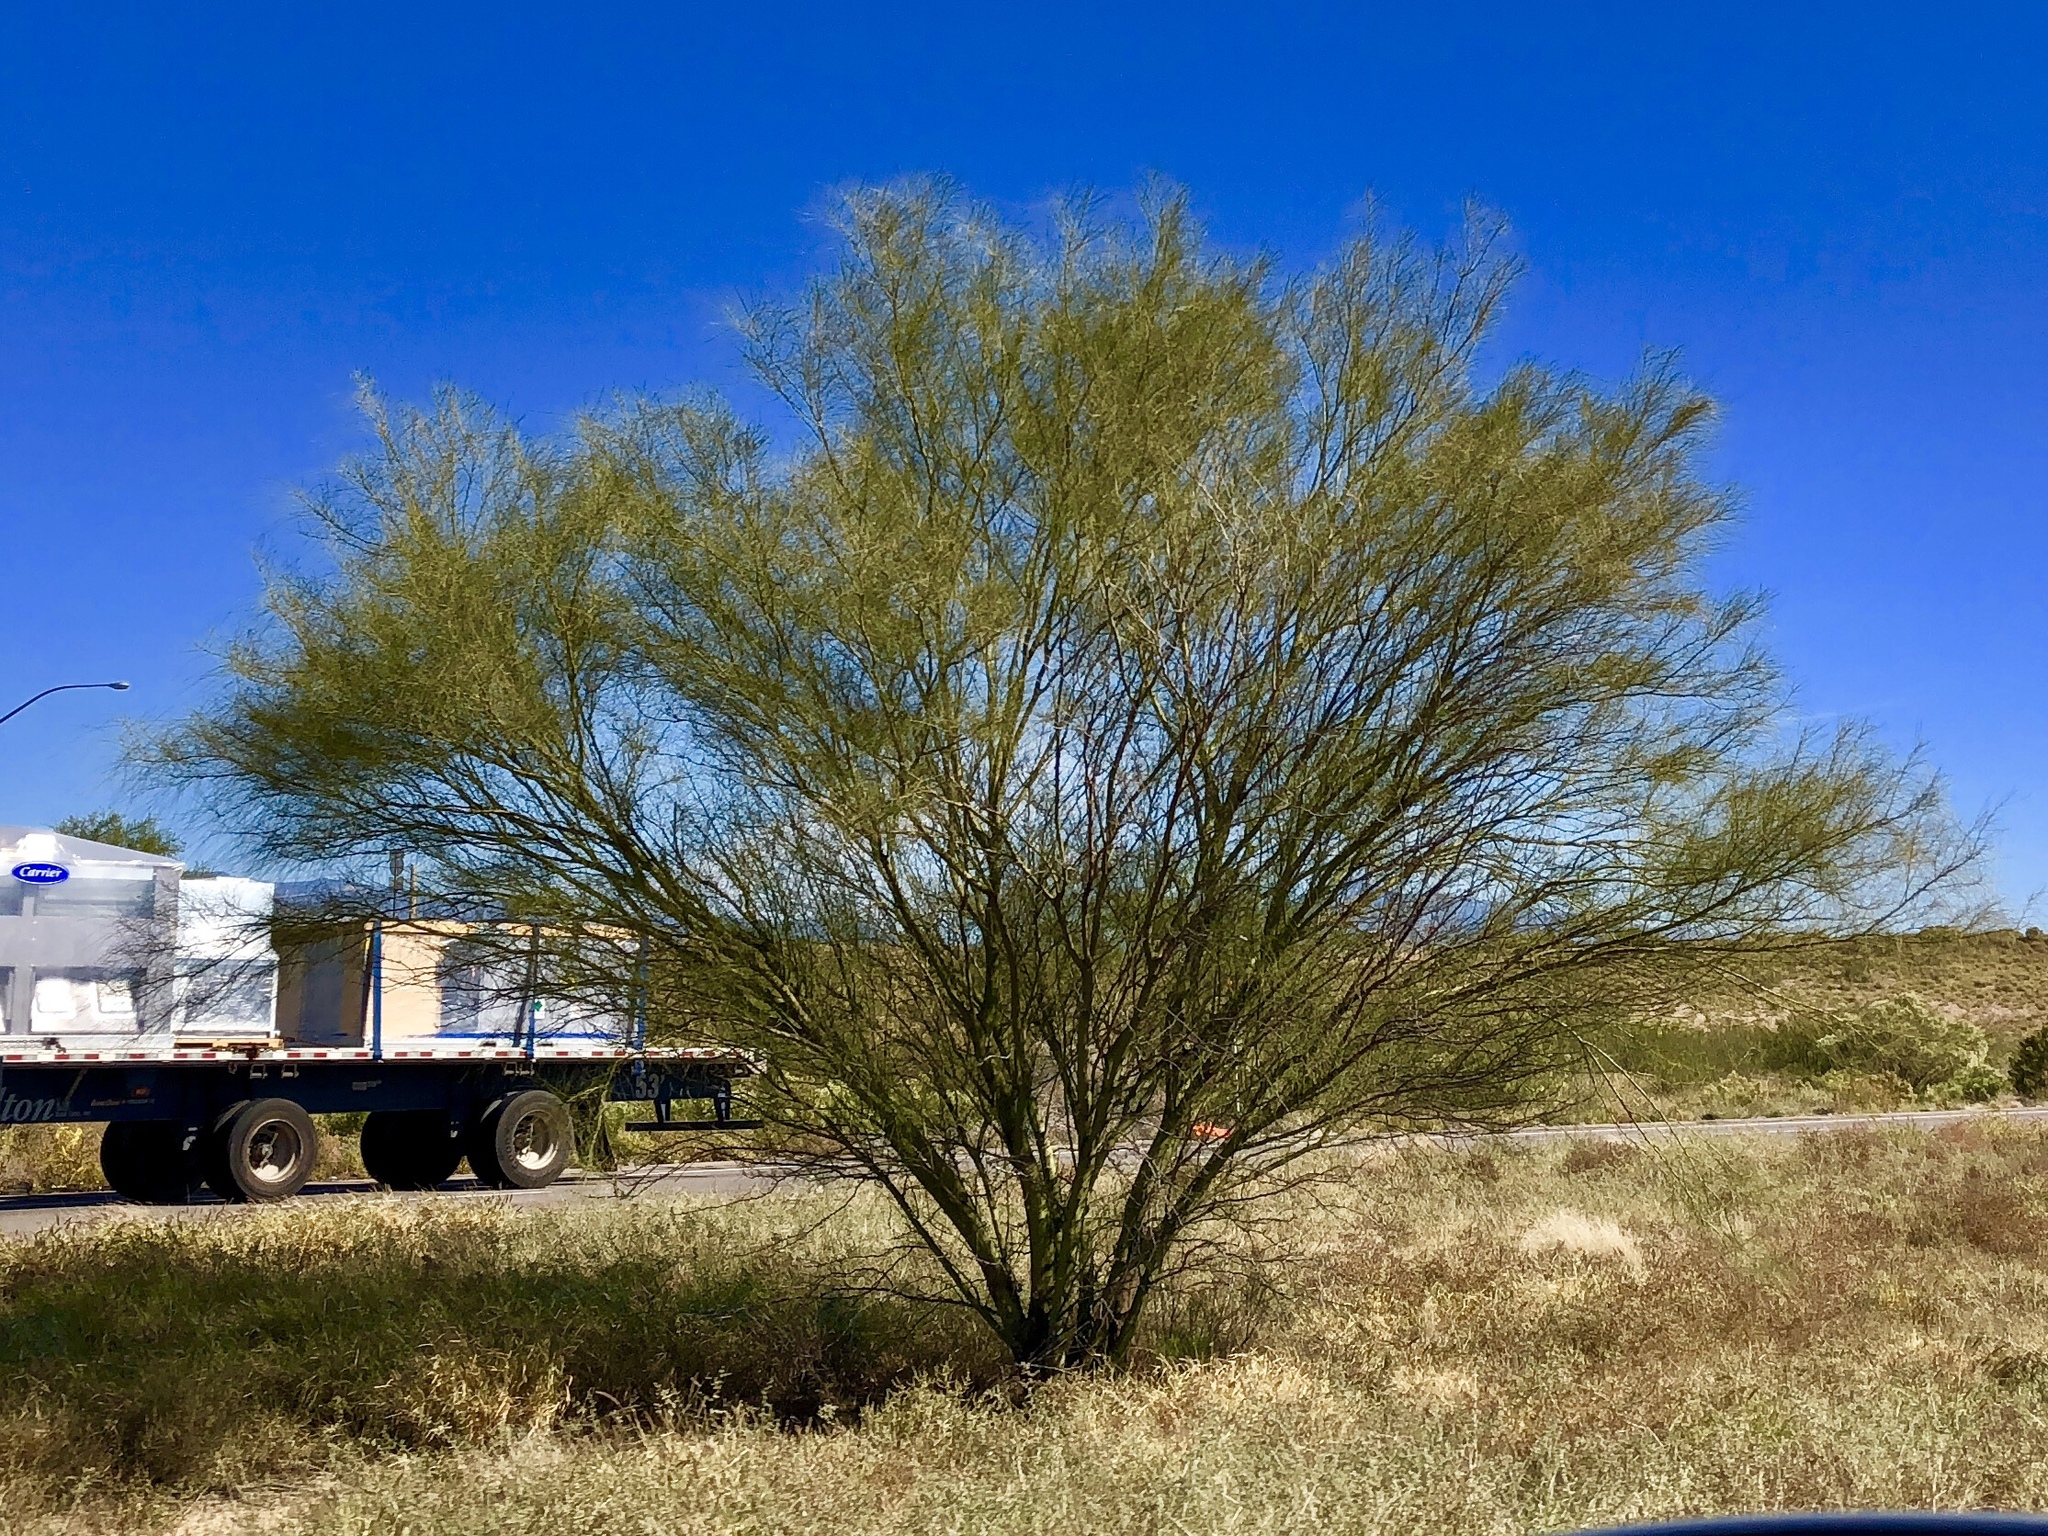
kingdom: Plantae
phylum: Tracheophyta
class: Magnoliopsida
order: Fabales
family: Fabaceae
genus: Parkinsonia
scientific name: Parkinsonia aculeata
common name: Jerusalem thorn
